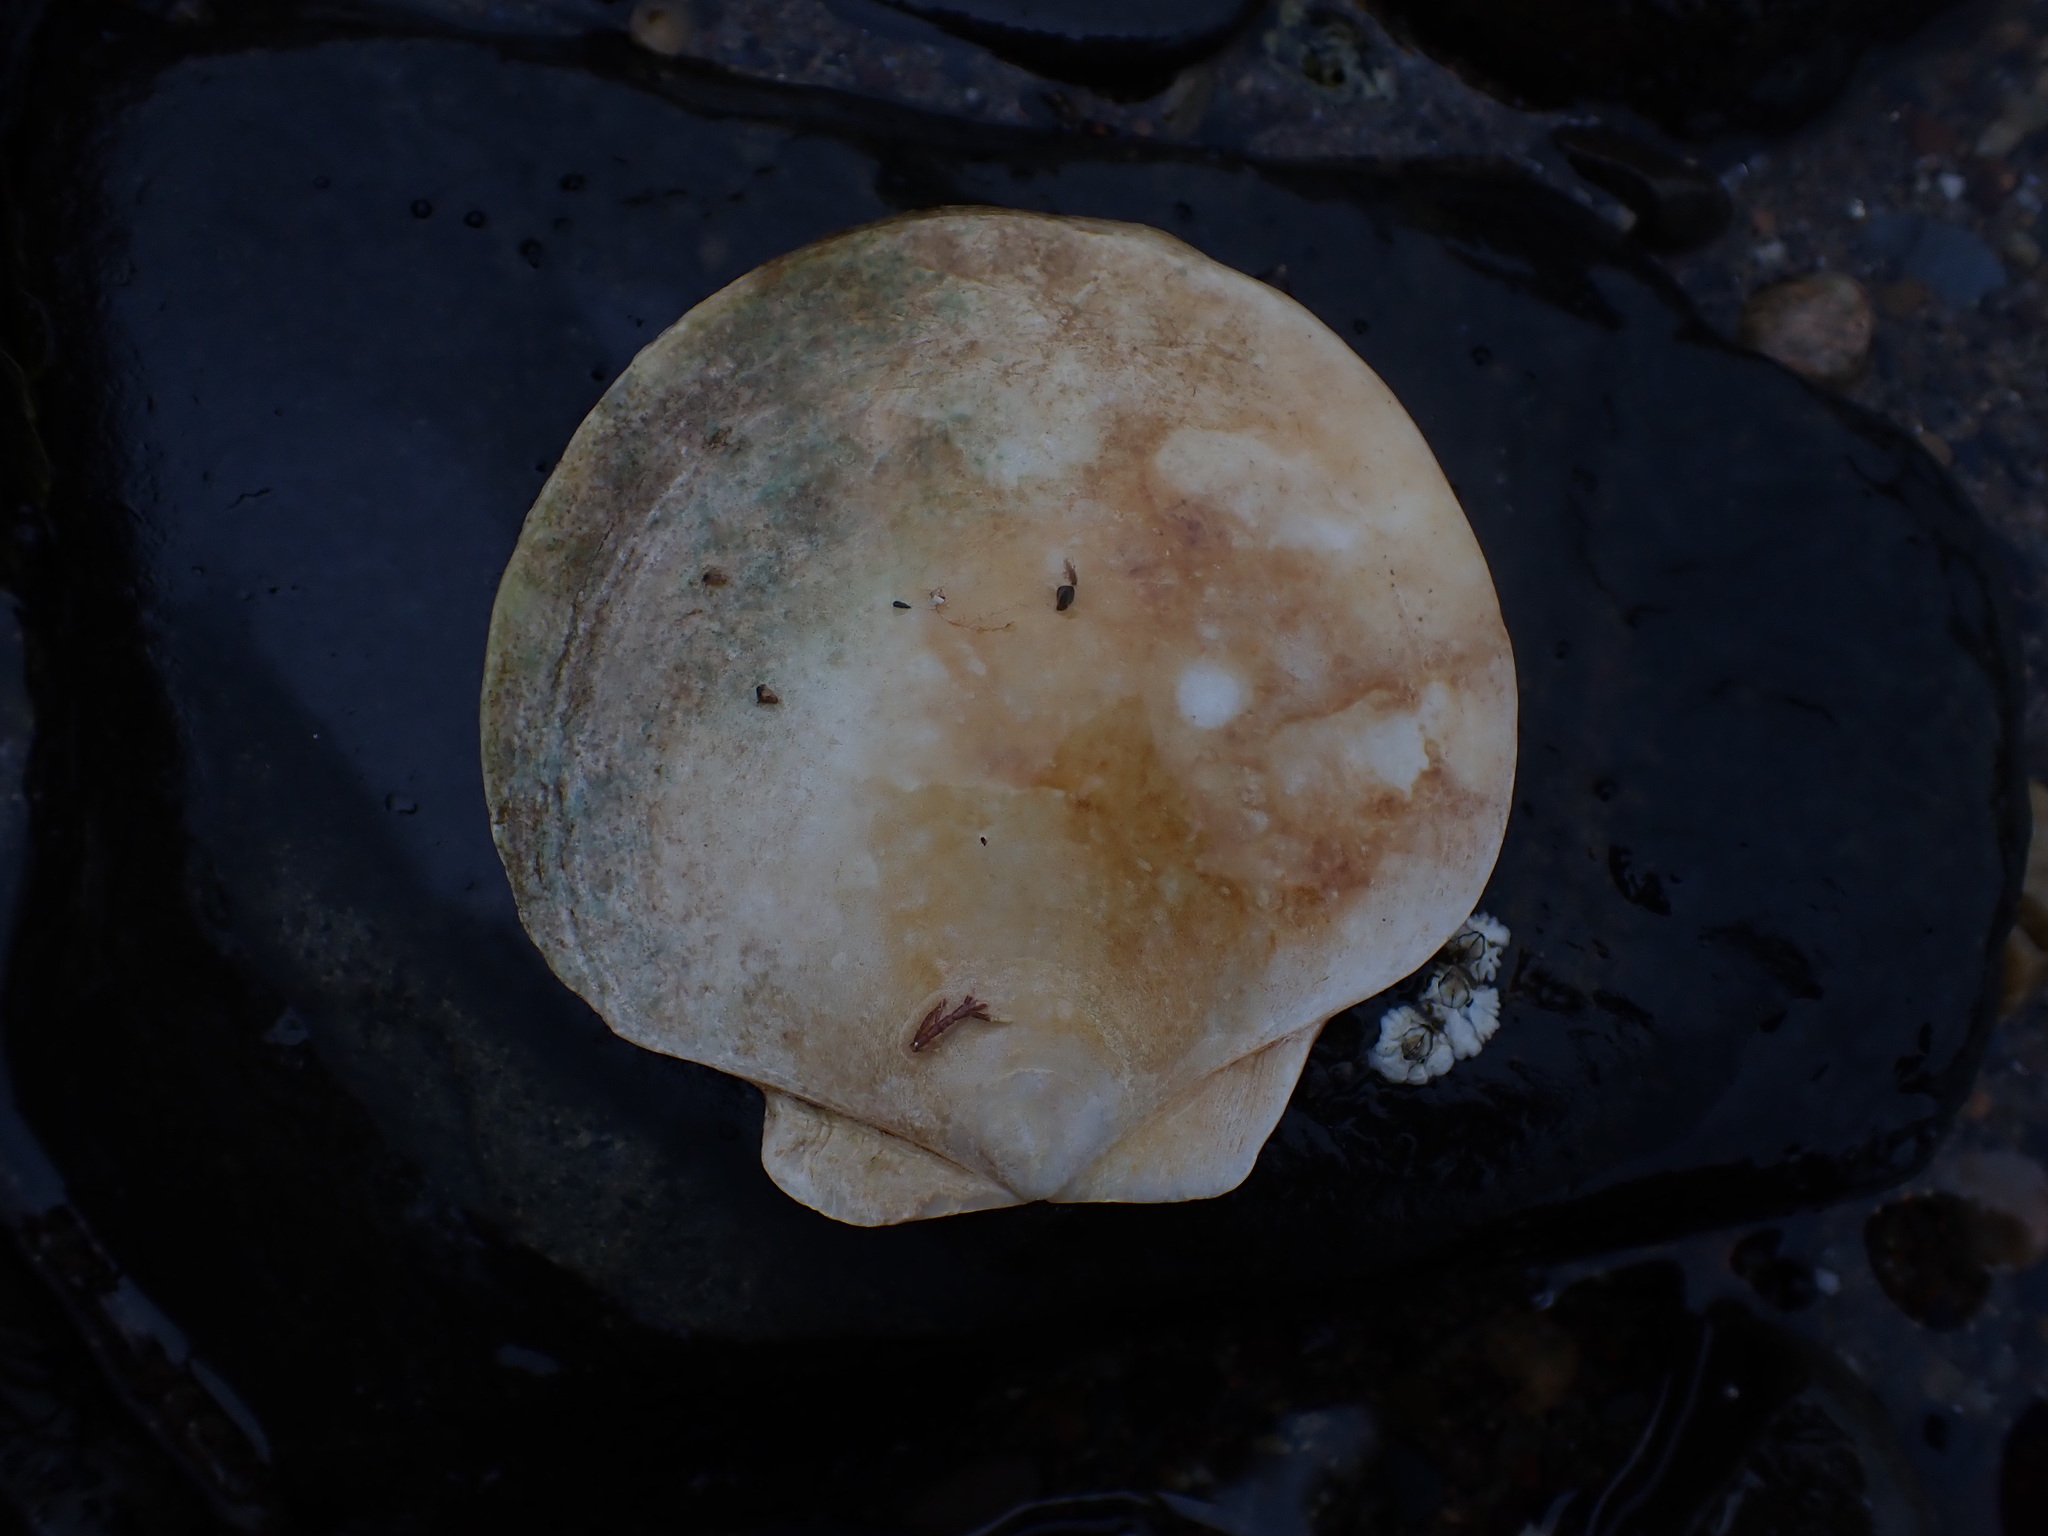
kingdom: Animalia
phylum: Mollusca
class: Bivalvia
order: Pectinida
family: Pectinidae
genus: Placopecten
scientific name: Placopecten magellanicus
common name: American sea scallop
